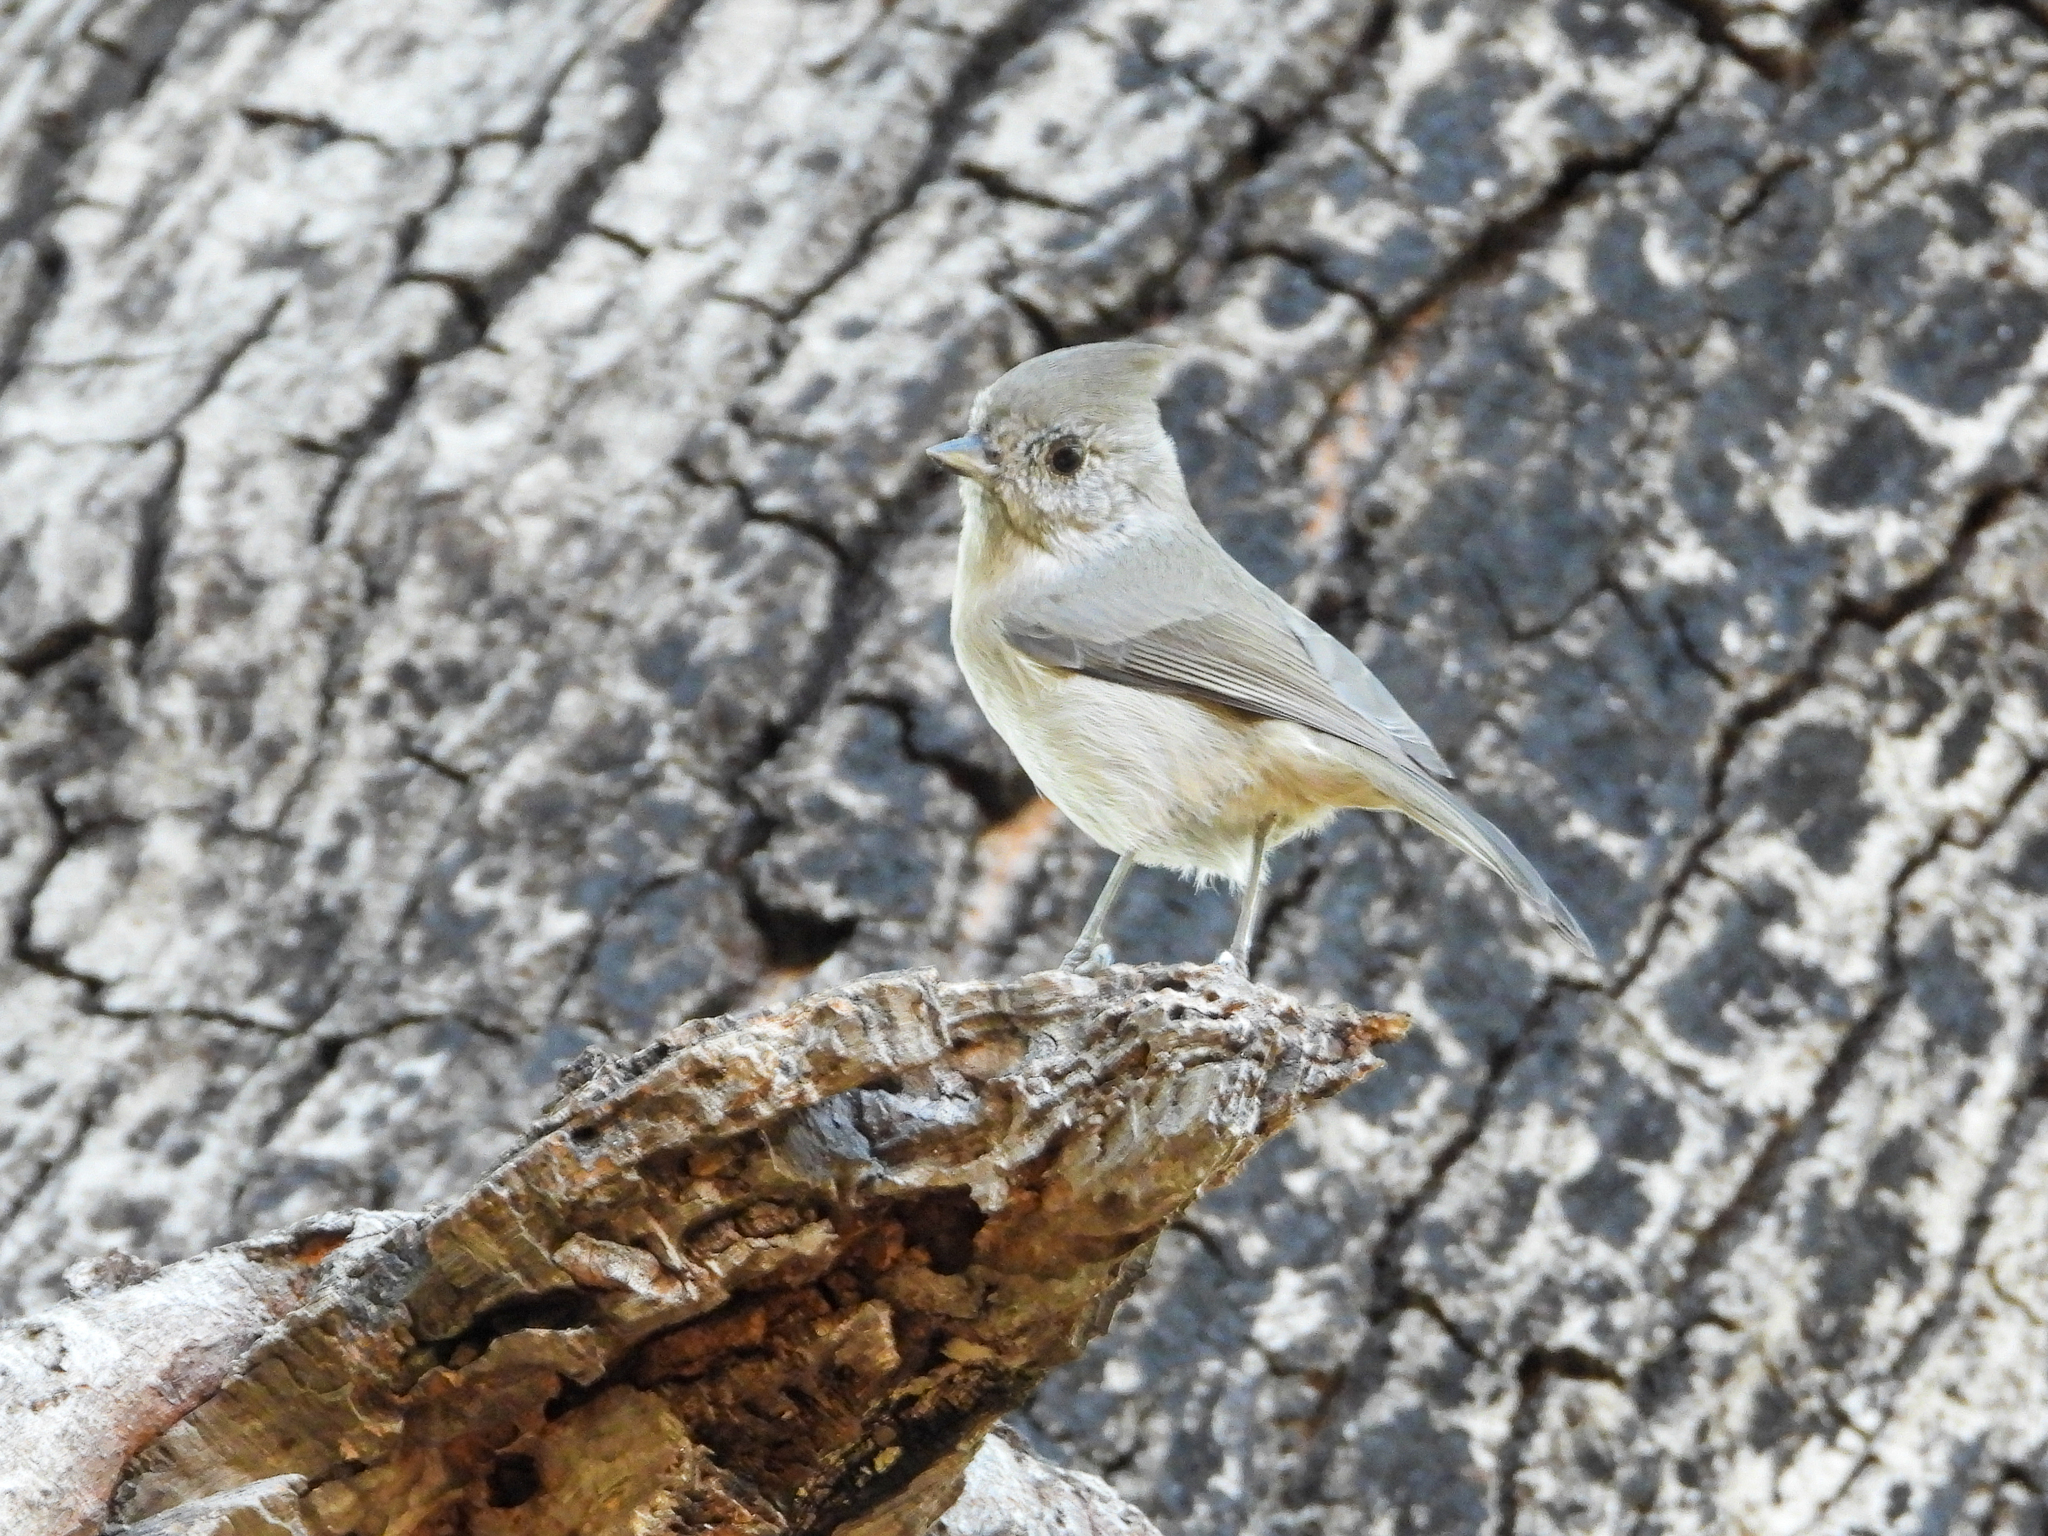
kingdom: Animalia
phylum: Chordata
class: Aves
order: Passeriformes
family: Paridae
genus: Baeolophus
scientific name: Baeolophus inornatus
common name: Oak titmouse
